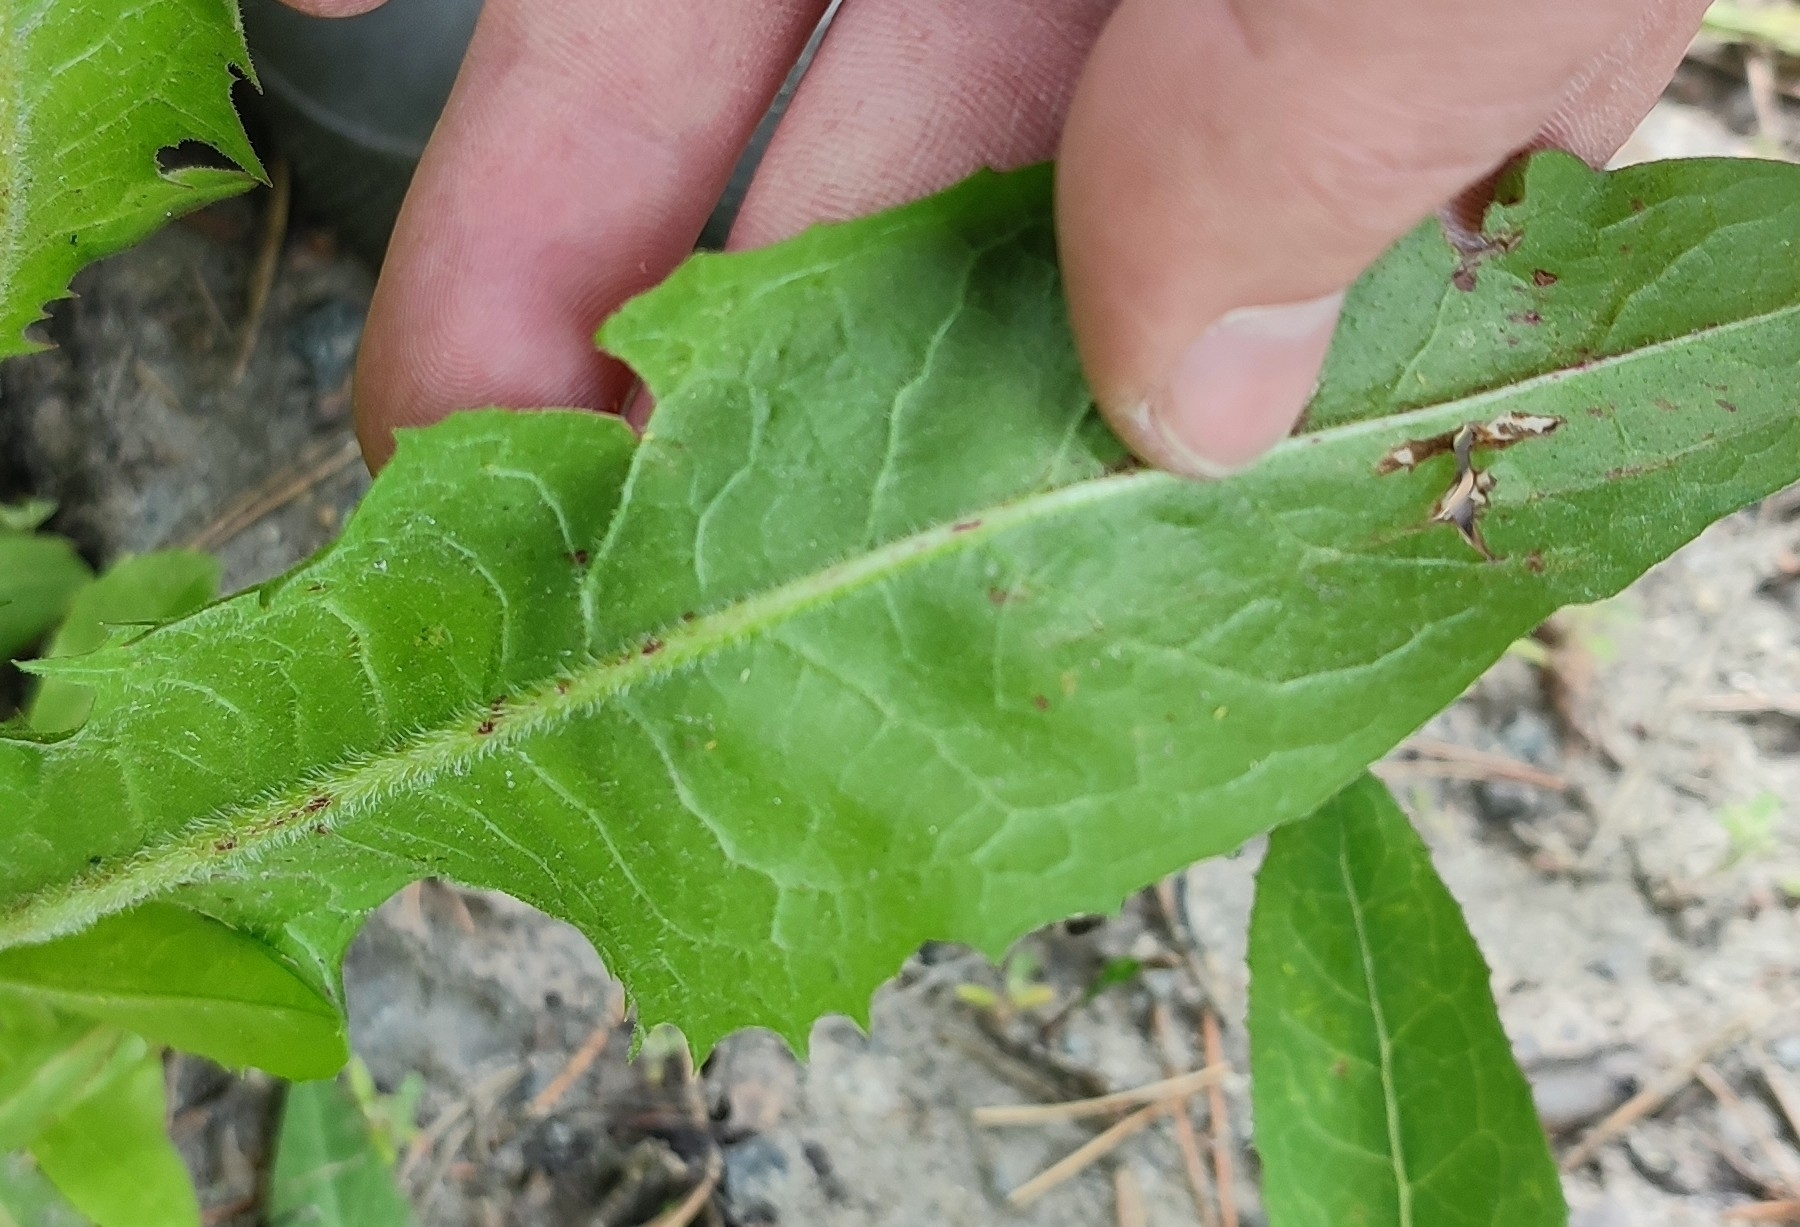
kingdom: Plantae
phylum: Tracheophyta
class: Magnoliopsida
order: Asterales
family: Asteraceae
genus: Cichorium
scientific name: Cichorium intybus
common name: Chicory
